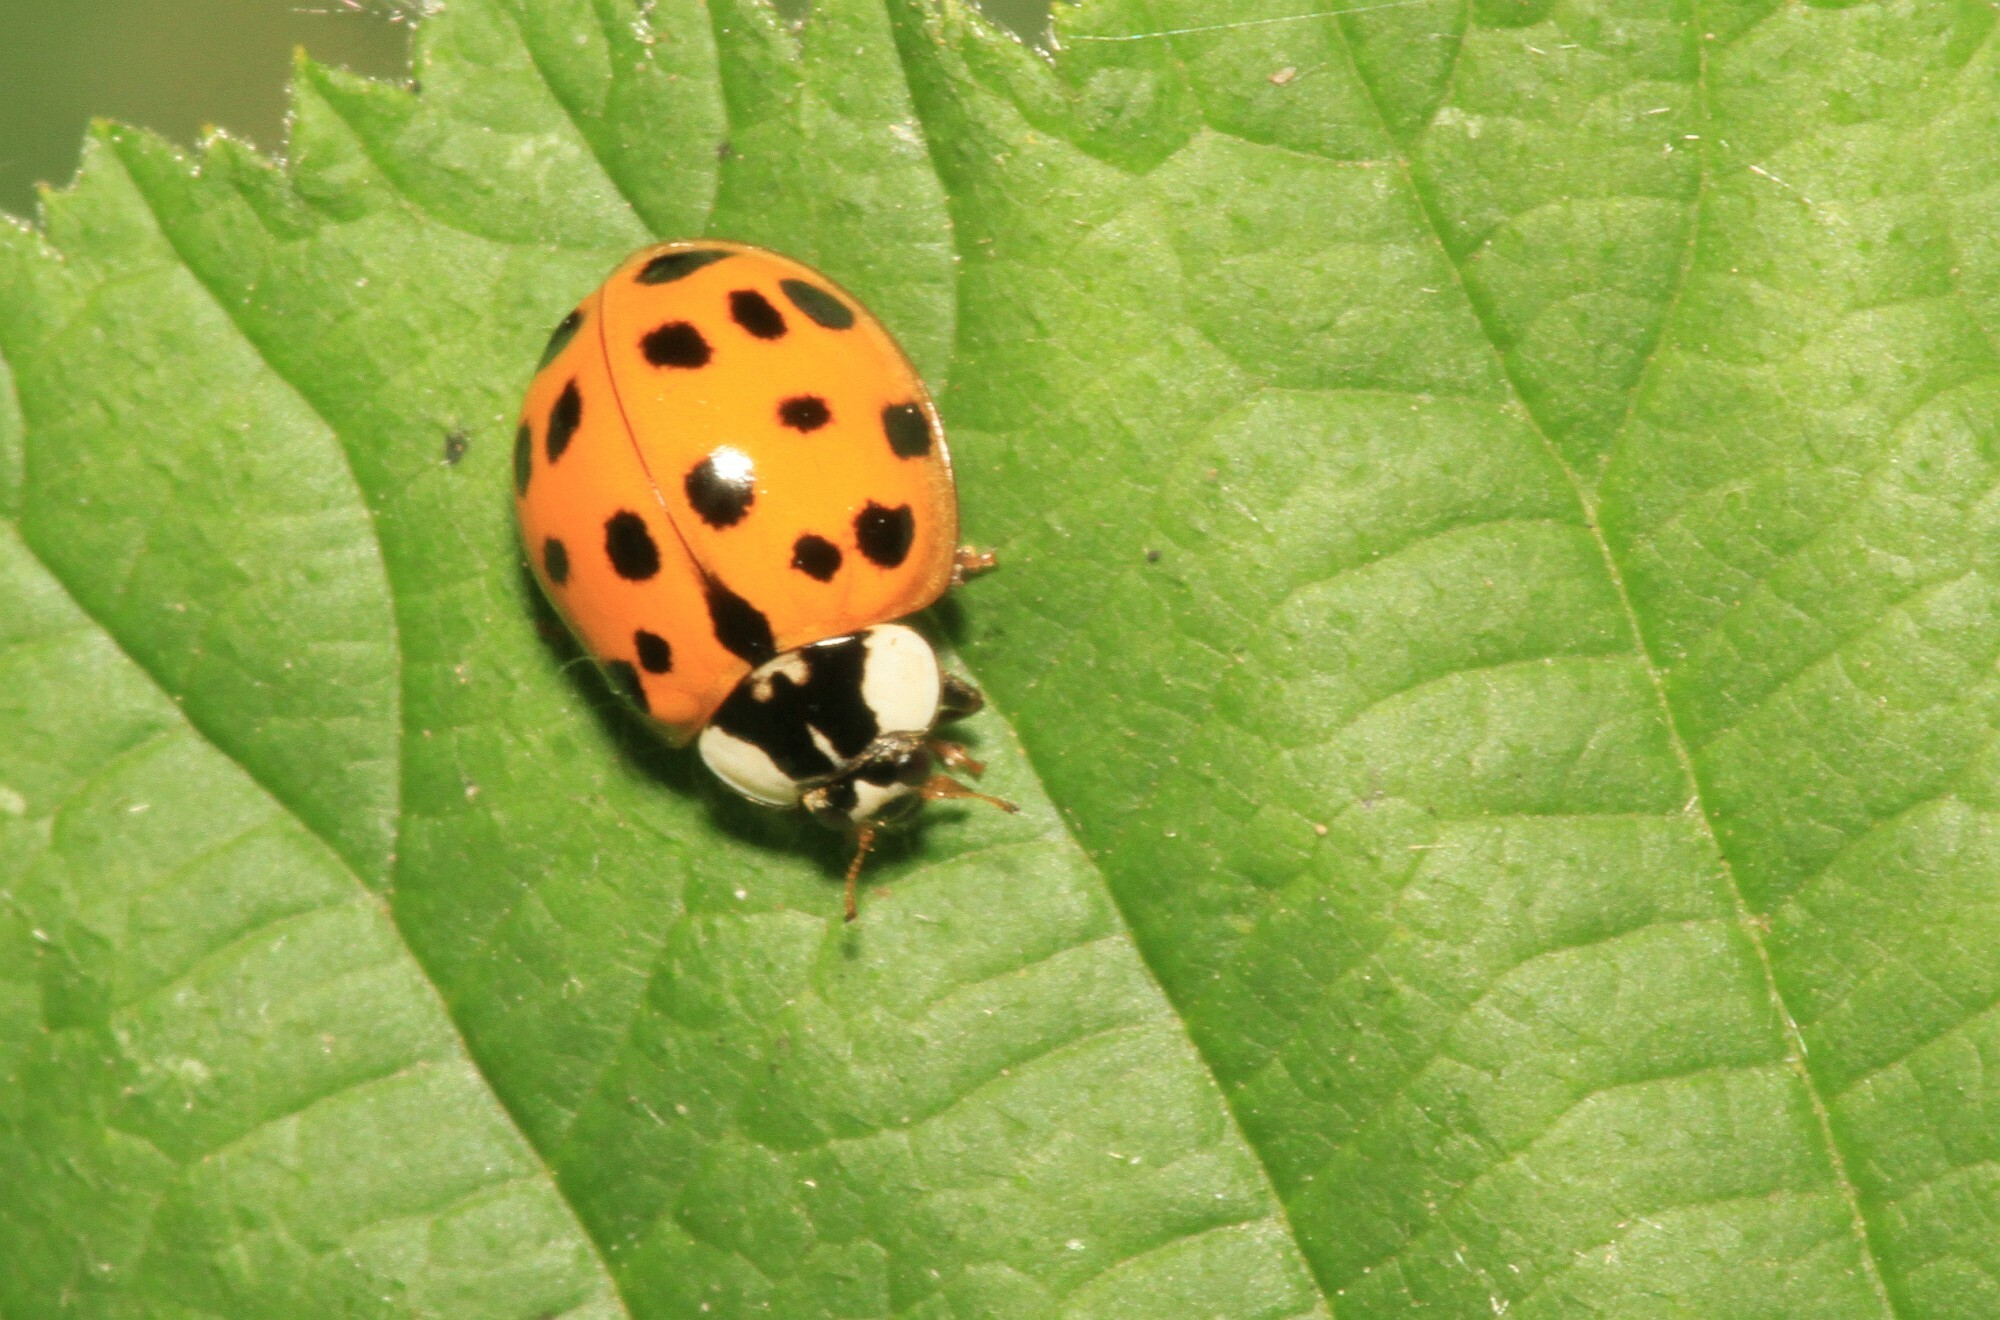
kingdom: Animalia
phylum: Arthropoda
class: Insecta
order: Coleoptera
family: Coccinellidae
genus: Harmonia
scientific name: Harmonia axyridis
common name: Harlequin ladybird
